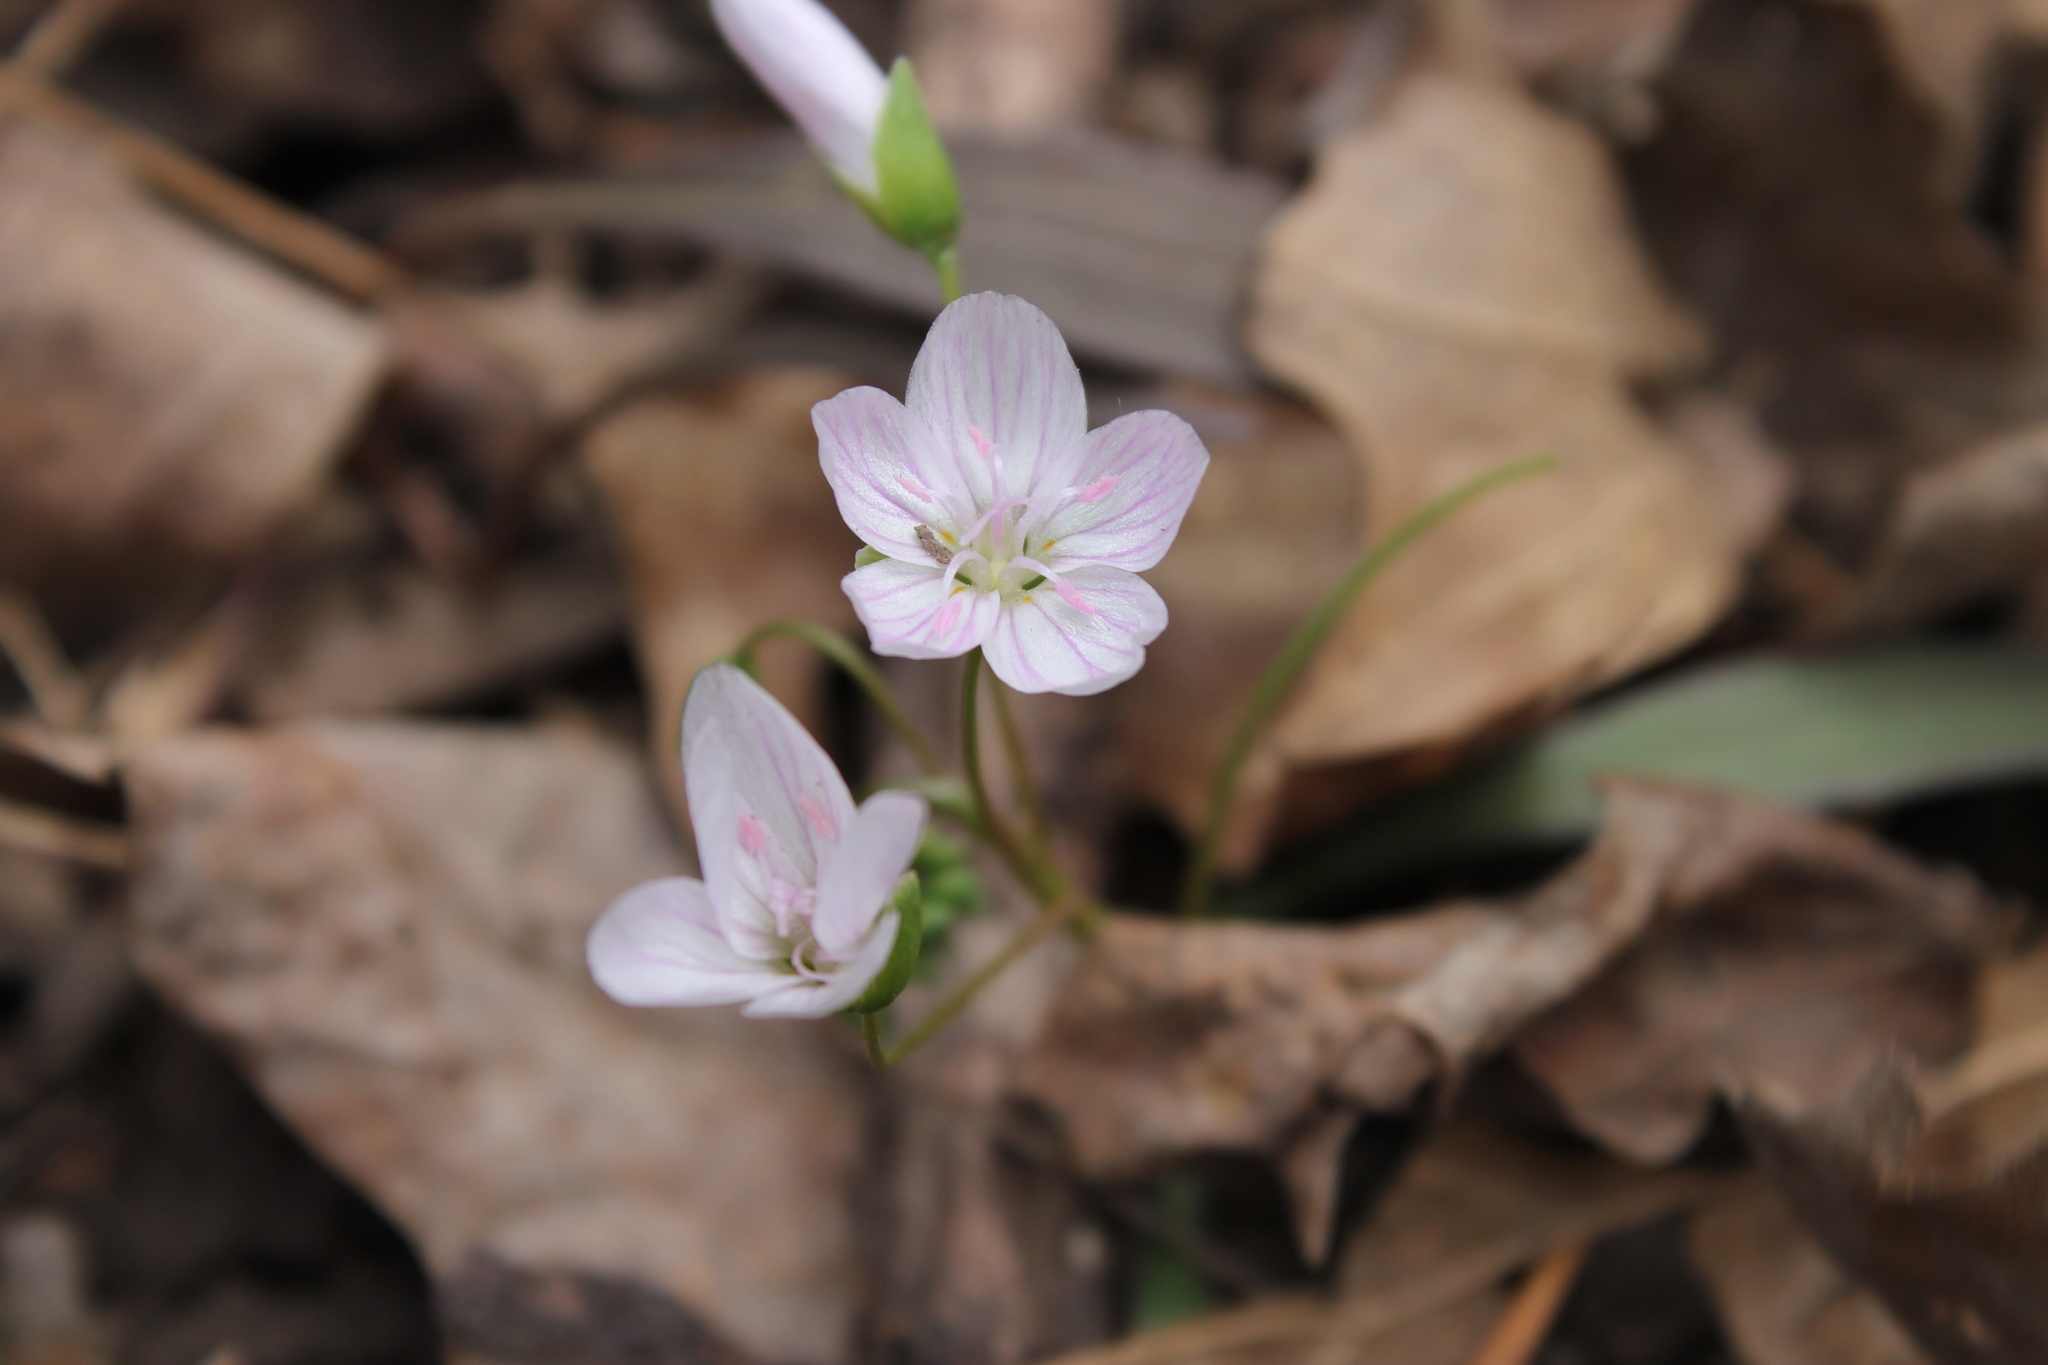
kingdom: Plantae
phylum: Tracheophyta
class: Magnoliopsida
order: Caryophyllales
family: Montiaceae
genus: Claytonia
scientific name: Claytonia virginica
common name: Virginia springbeauty
